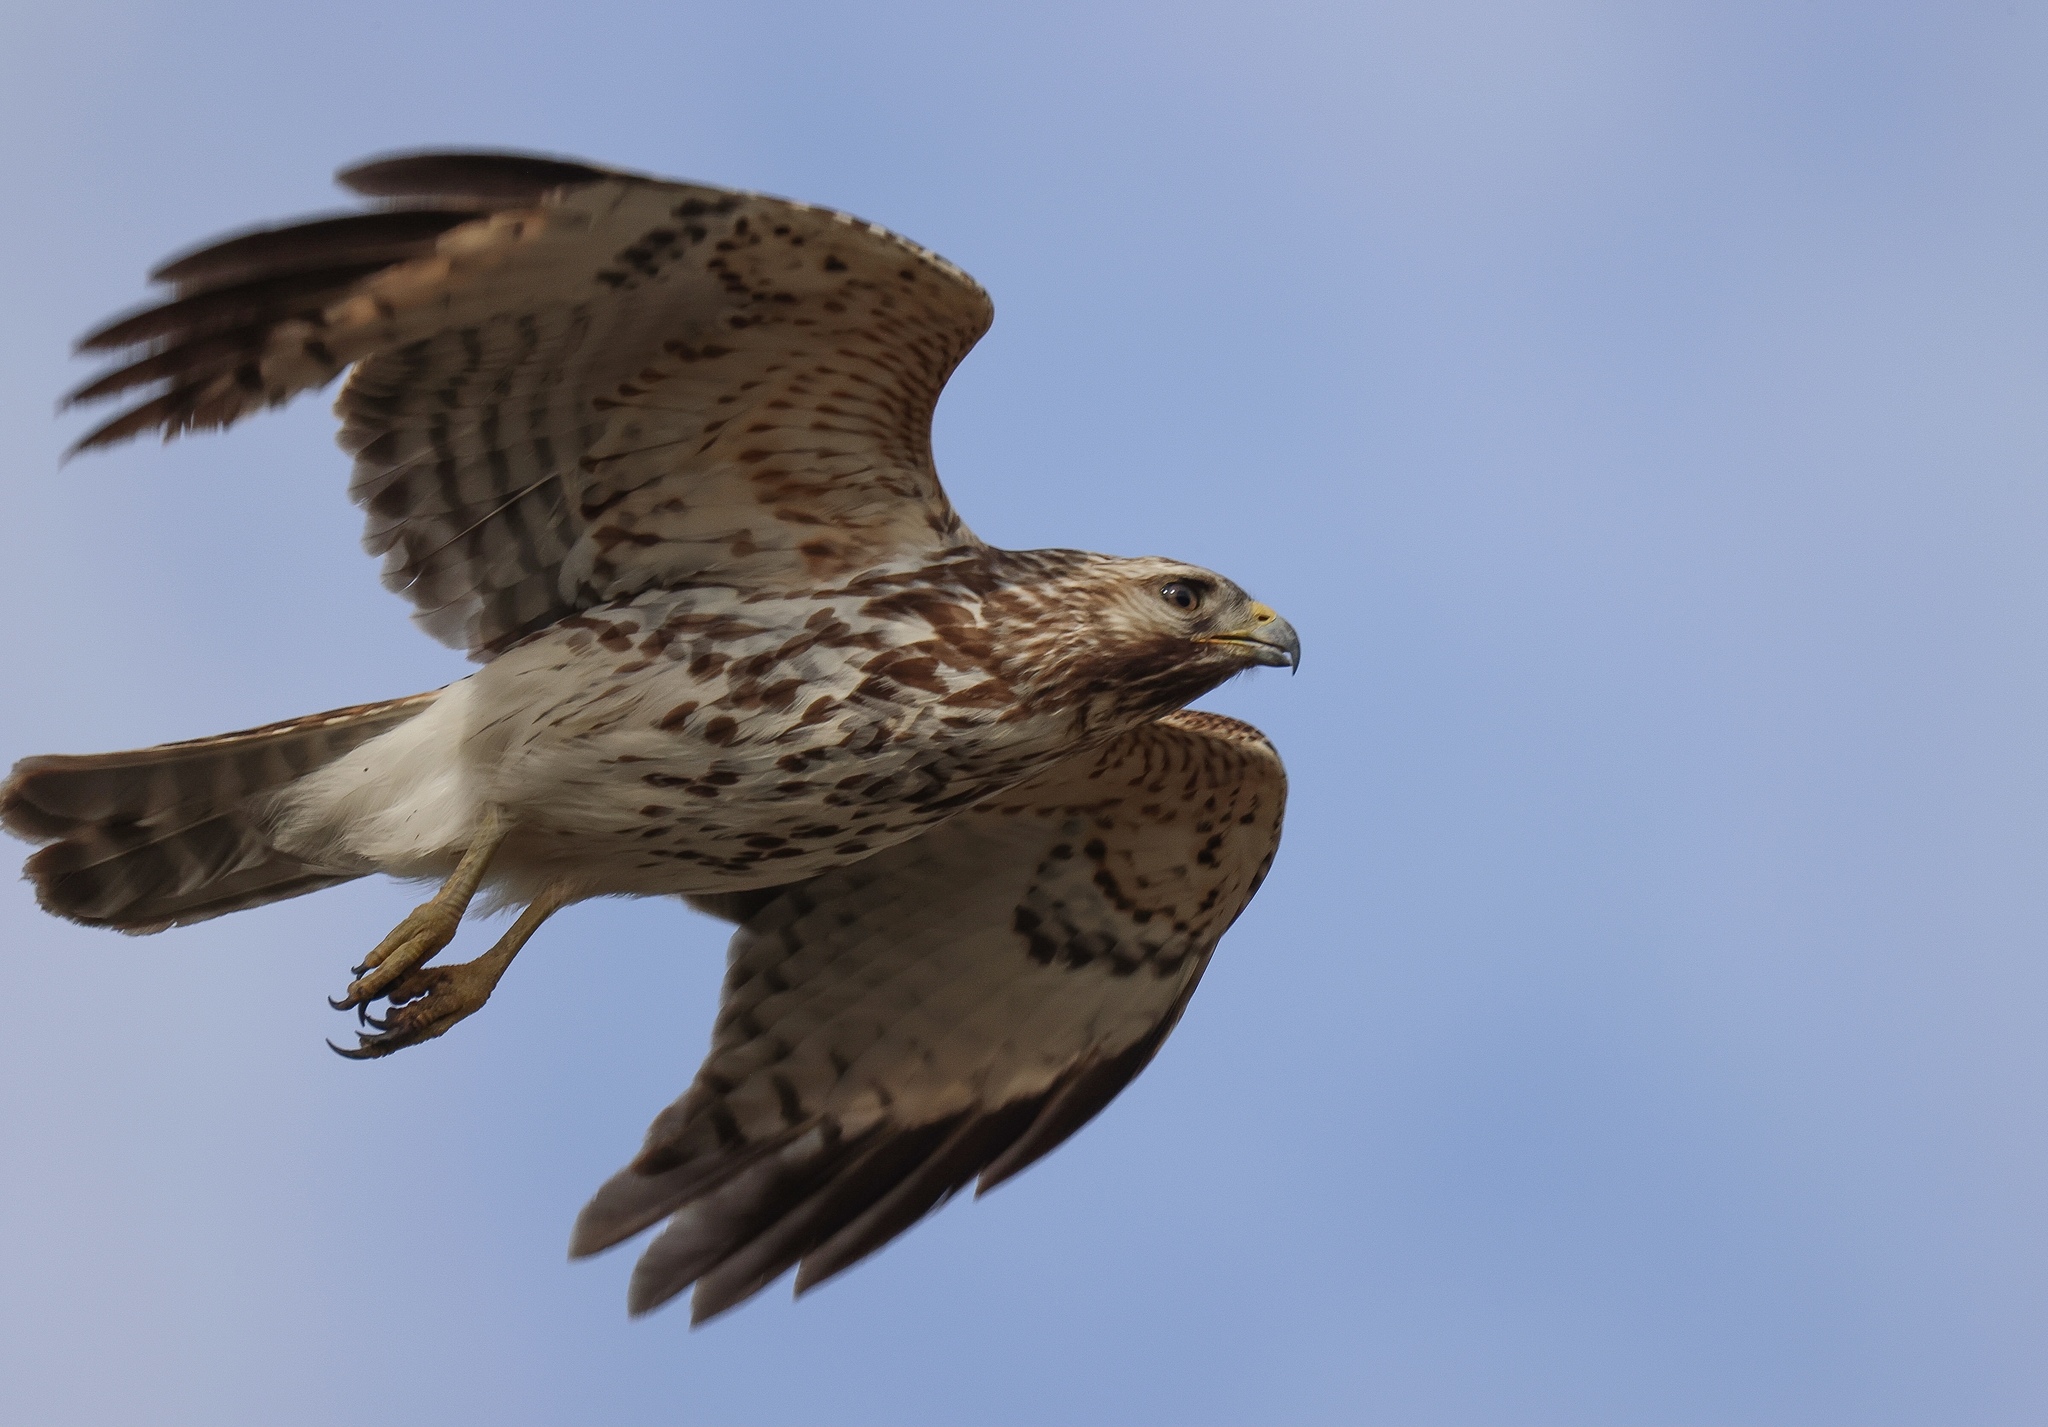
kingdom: Animalia
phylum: Chordata
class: Aves
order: Accipitriformes
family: Accipitridae
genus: Buteo
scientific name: Buteo lineatus
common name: Red-shouldered hawk
